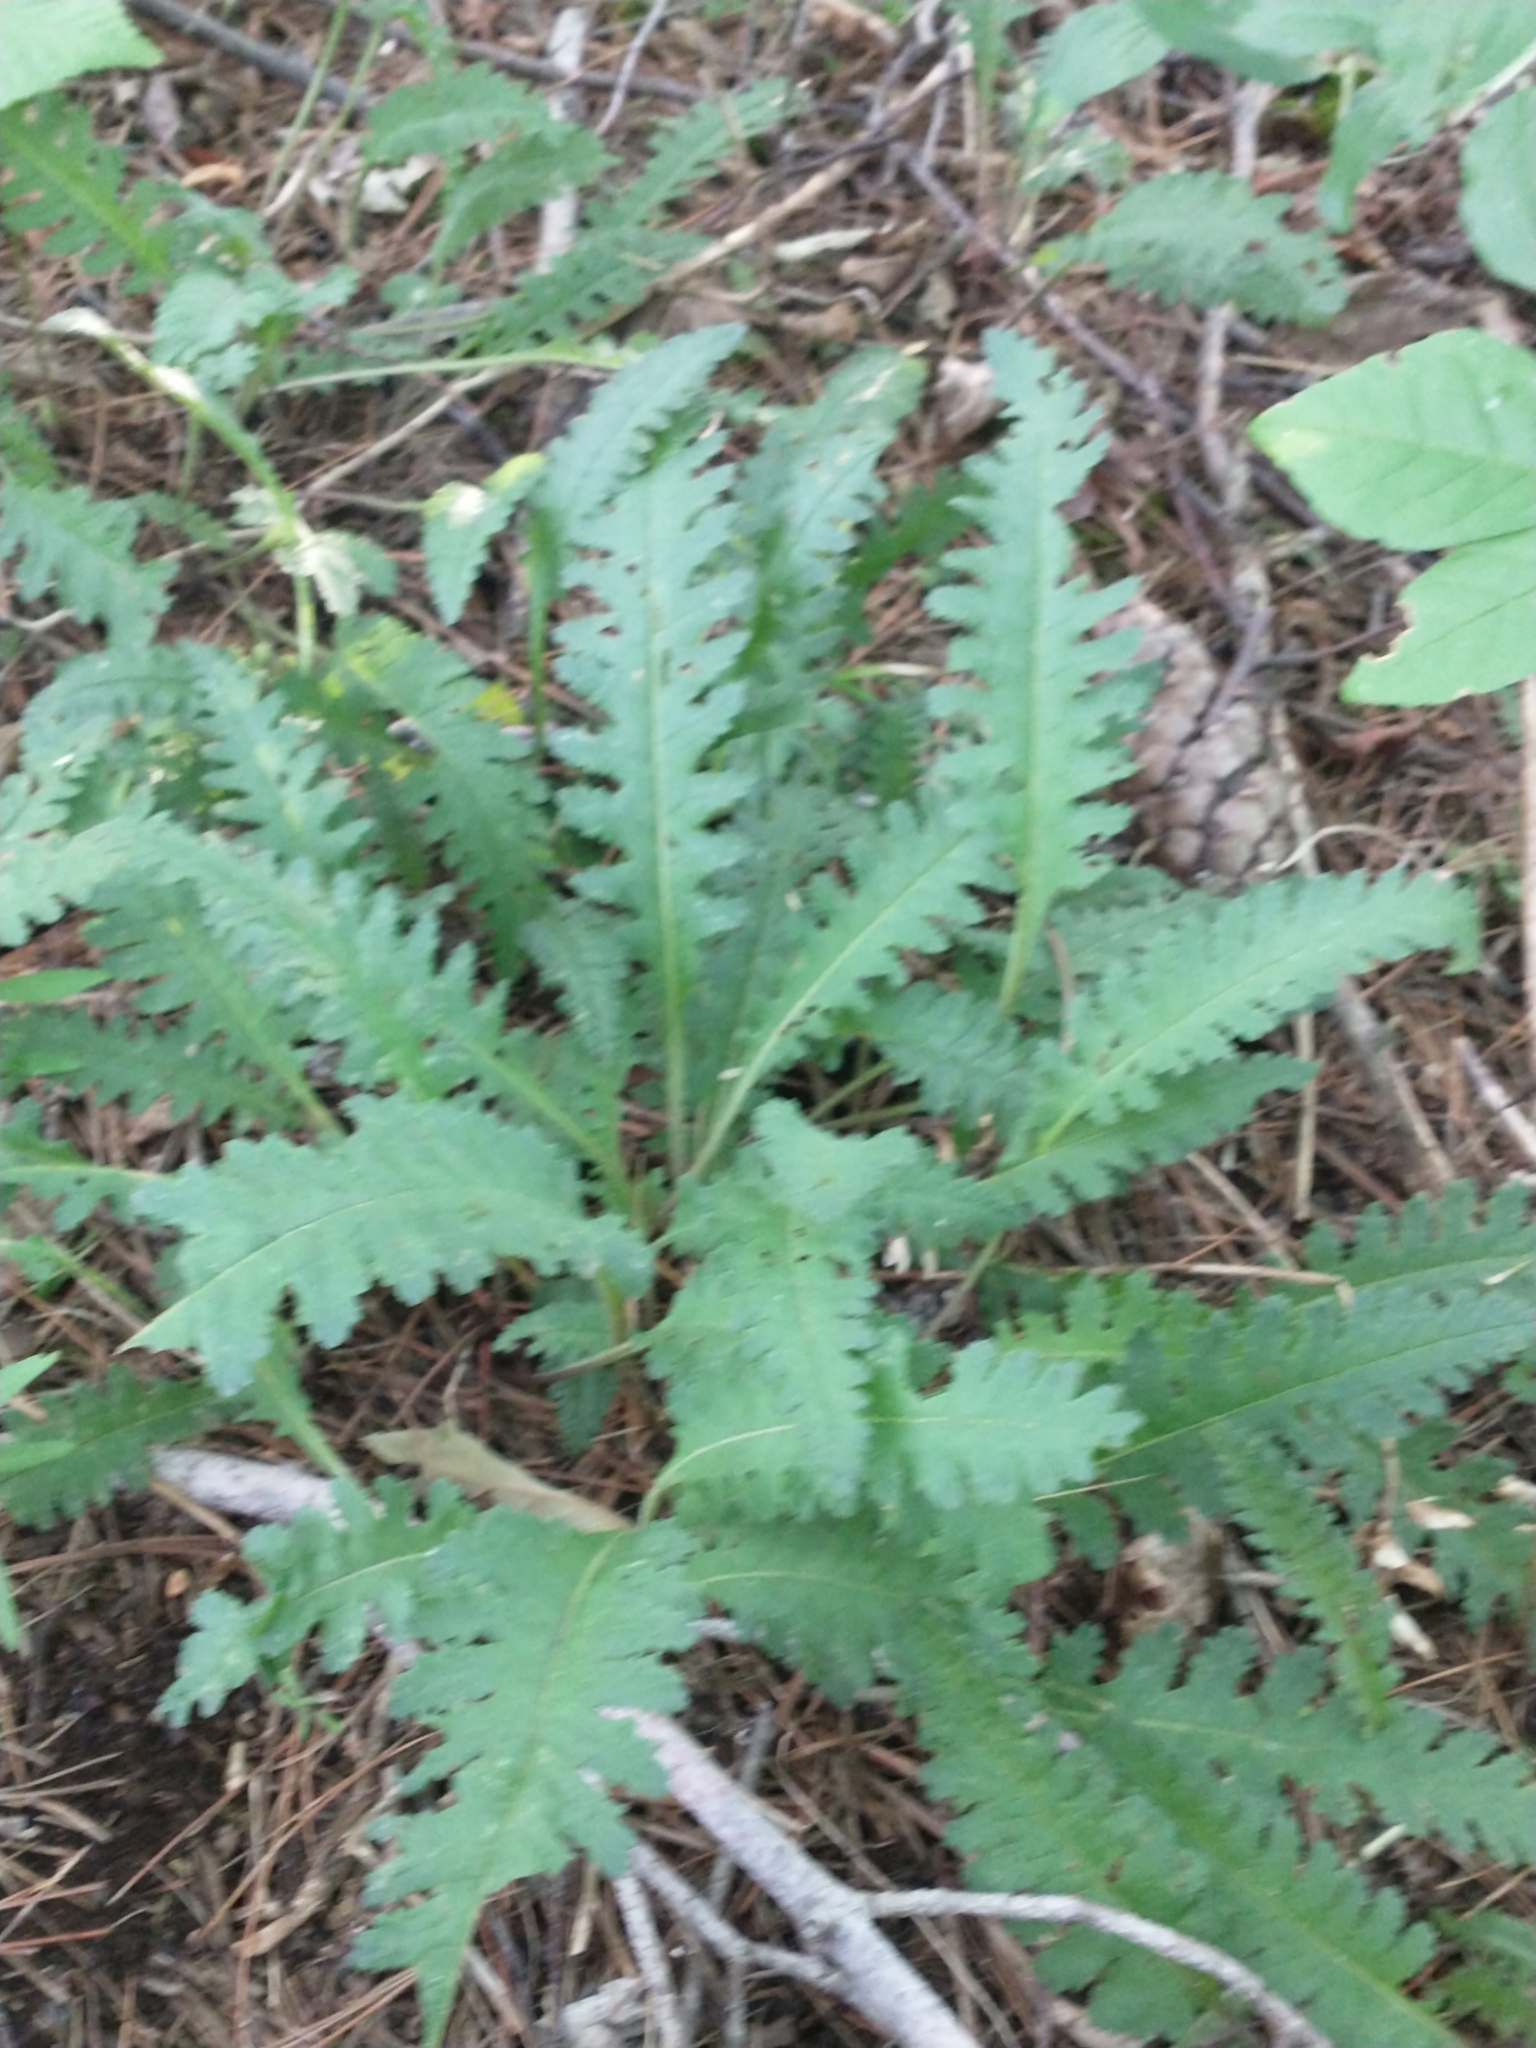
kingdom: Plantae
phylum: Tracheophyta
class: Magnoliopsida
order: Lamiales
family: Orobanchaceae
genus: Pedicularis
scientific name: Pedicularis canadensis
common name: Early lousewort
